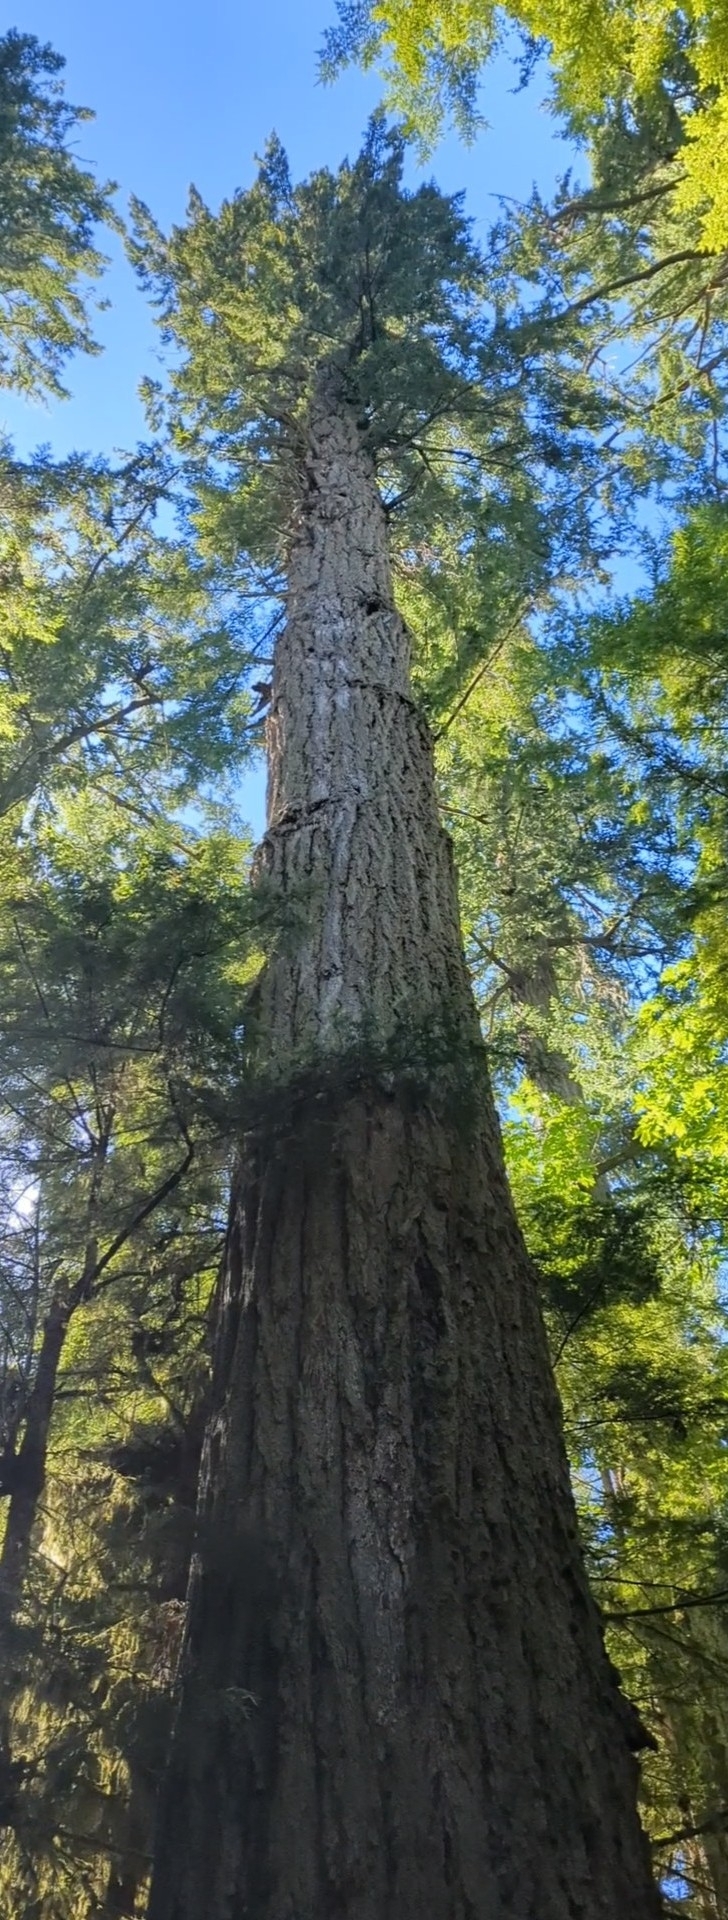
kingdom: Plantae
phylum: Tracheophyta
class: Pinopsida
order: Pinales
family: Pinaceae
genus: Pseudotsuga
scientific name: Pseudotsuga menziesii
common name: Douglas fir
